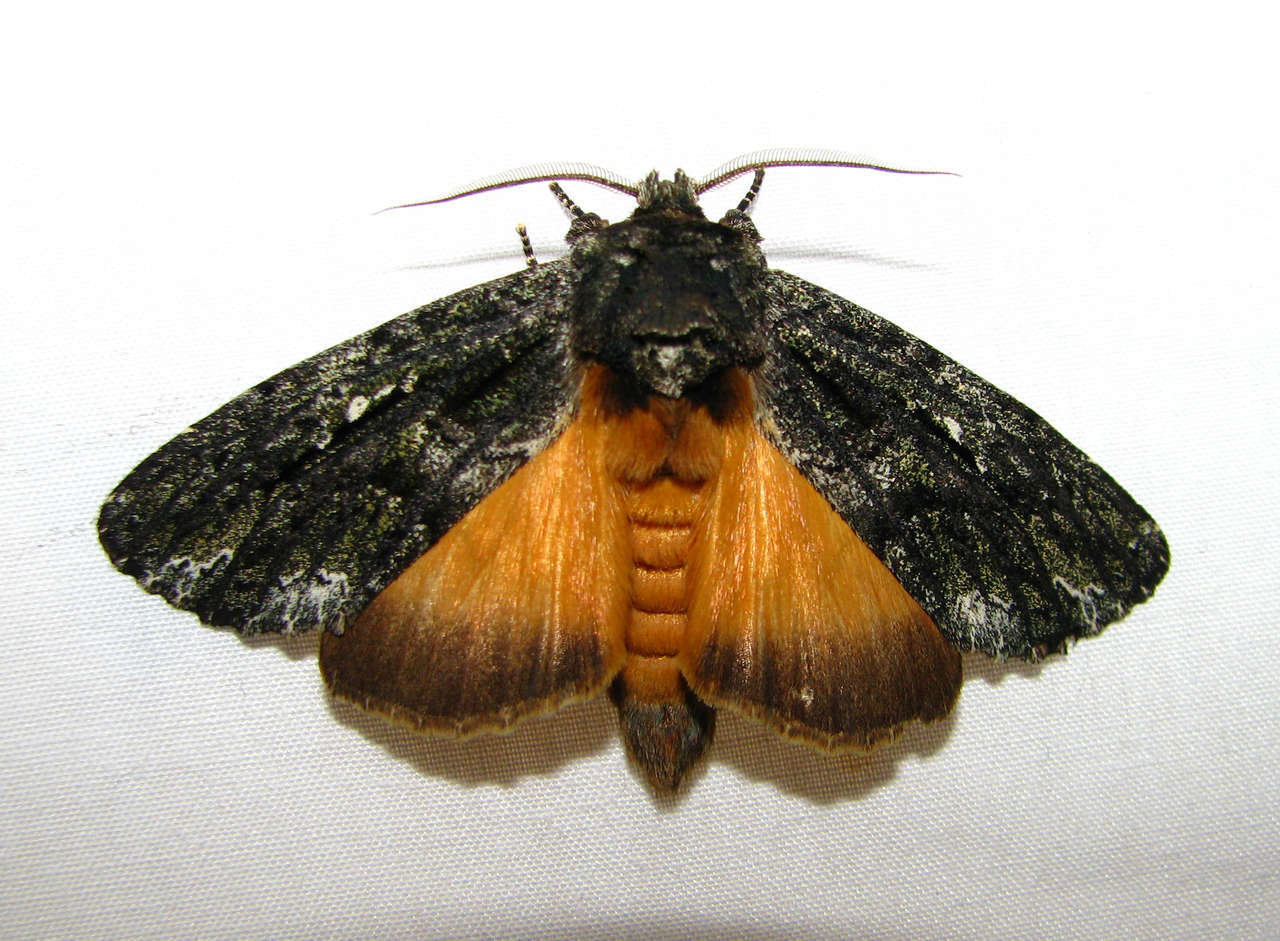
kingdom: Animalia
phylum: Arthropoda
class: Insecta
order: Lepidoptera
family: Notodontidae
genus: Neola
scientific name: Neola semiaurata
